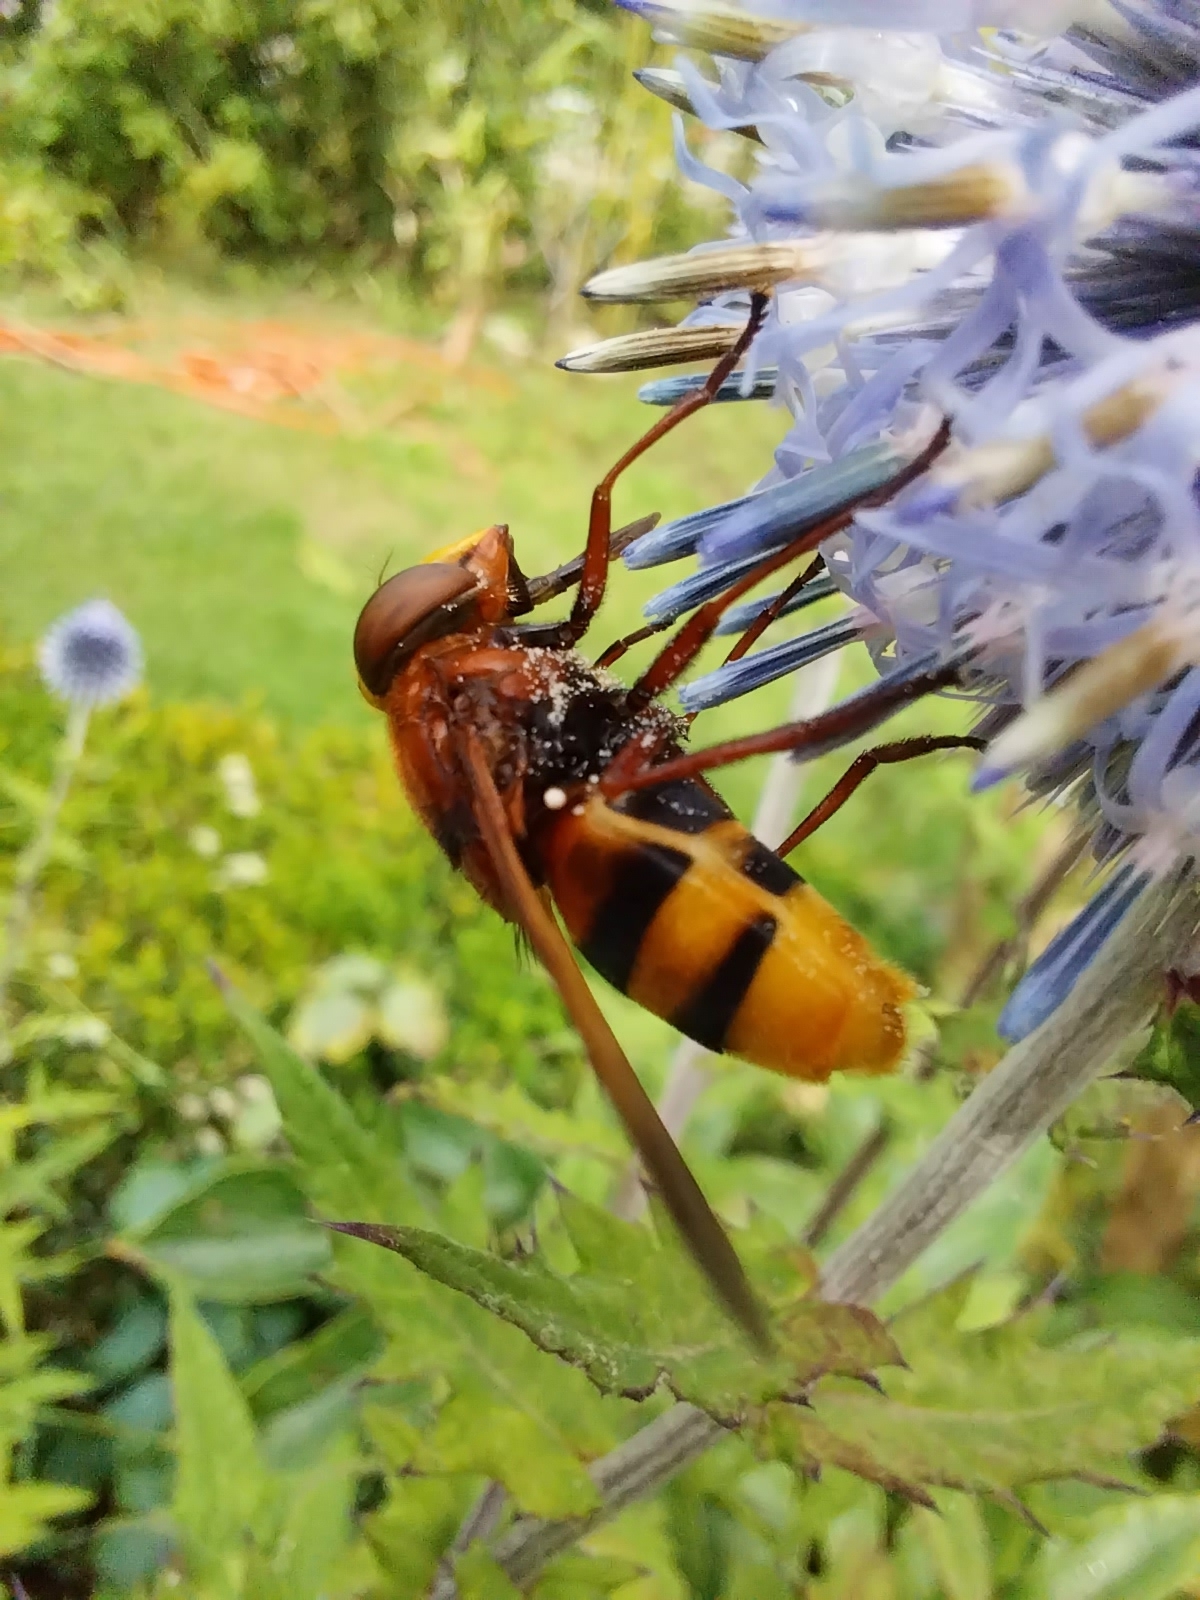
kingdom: Animalia
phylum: Arthropoda
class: Insecta
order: Diptera
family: Syrphidae
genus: Volucella
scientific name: Volucella zonaria
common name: Hornet hoverfly
